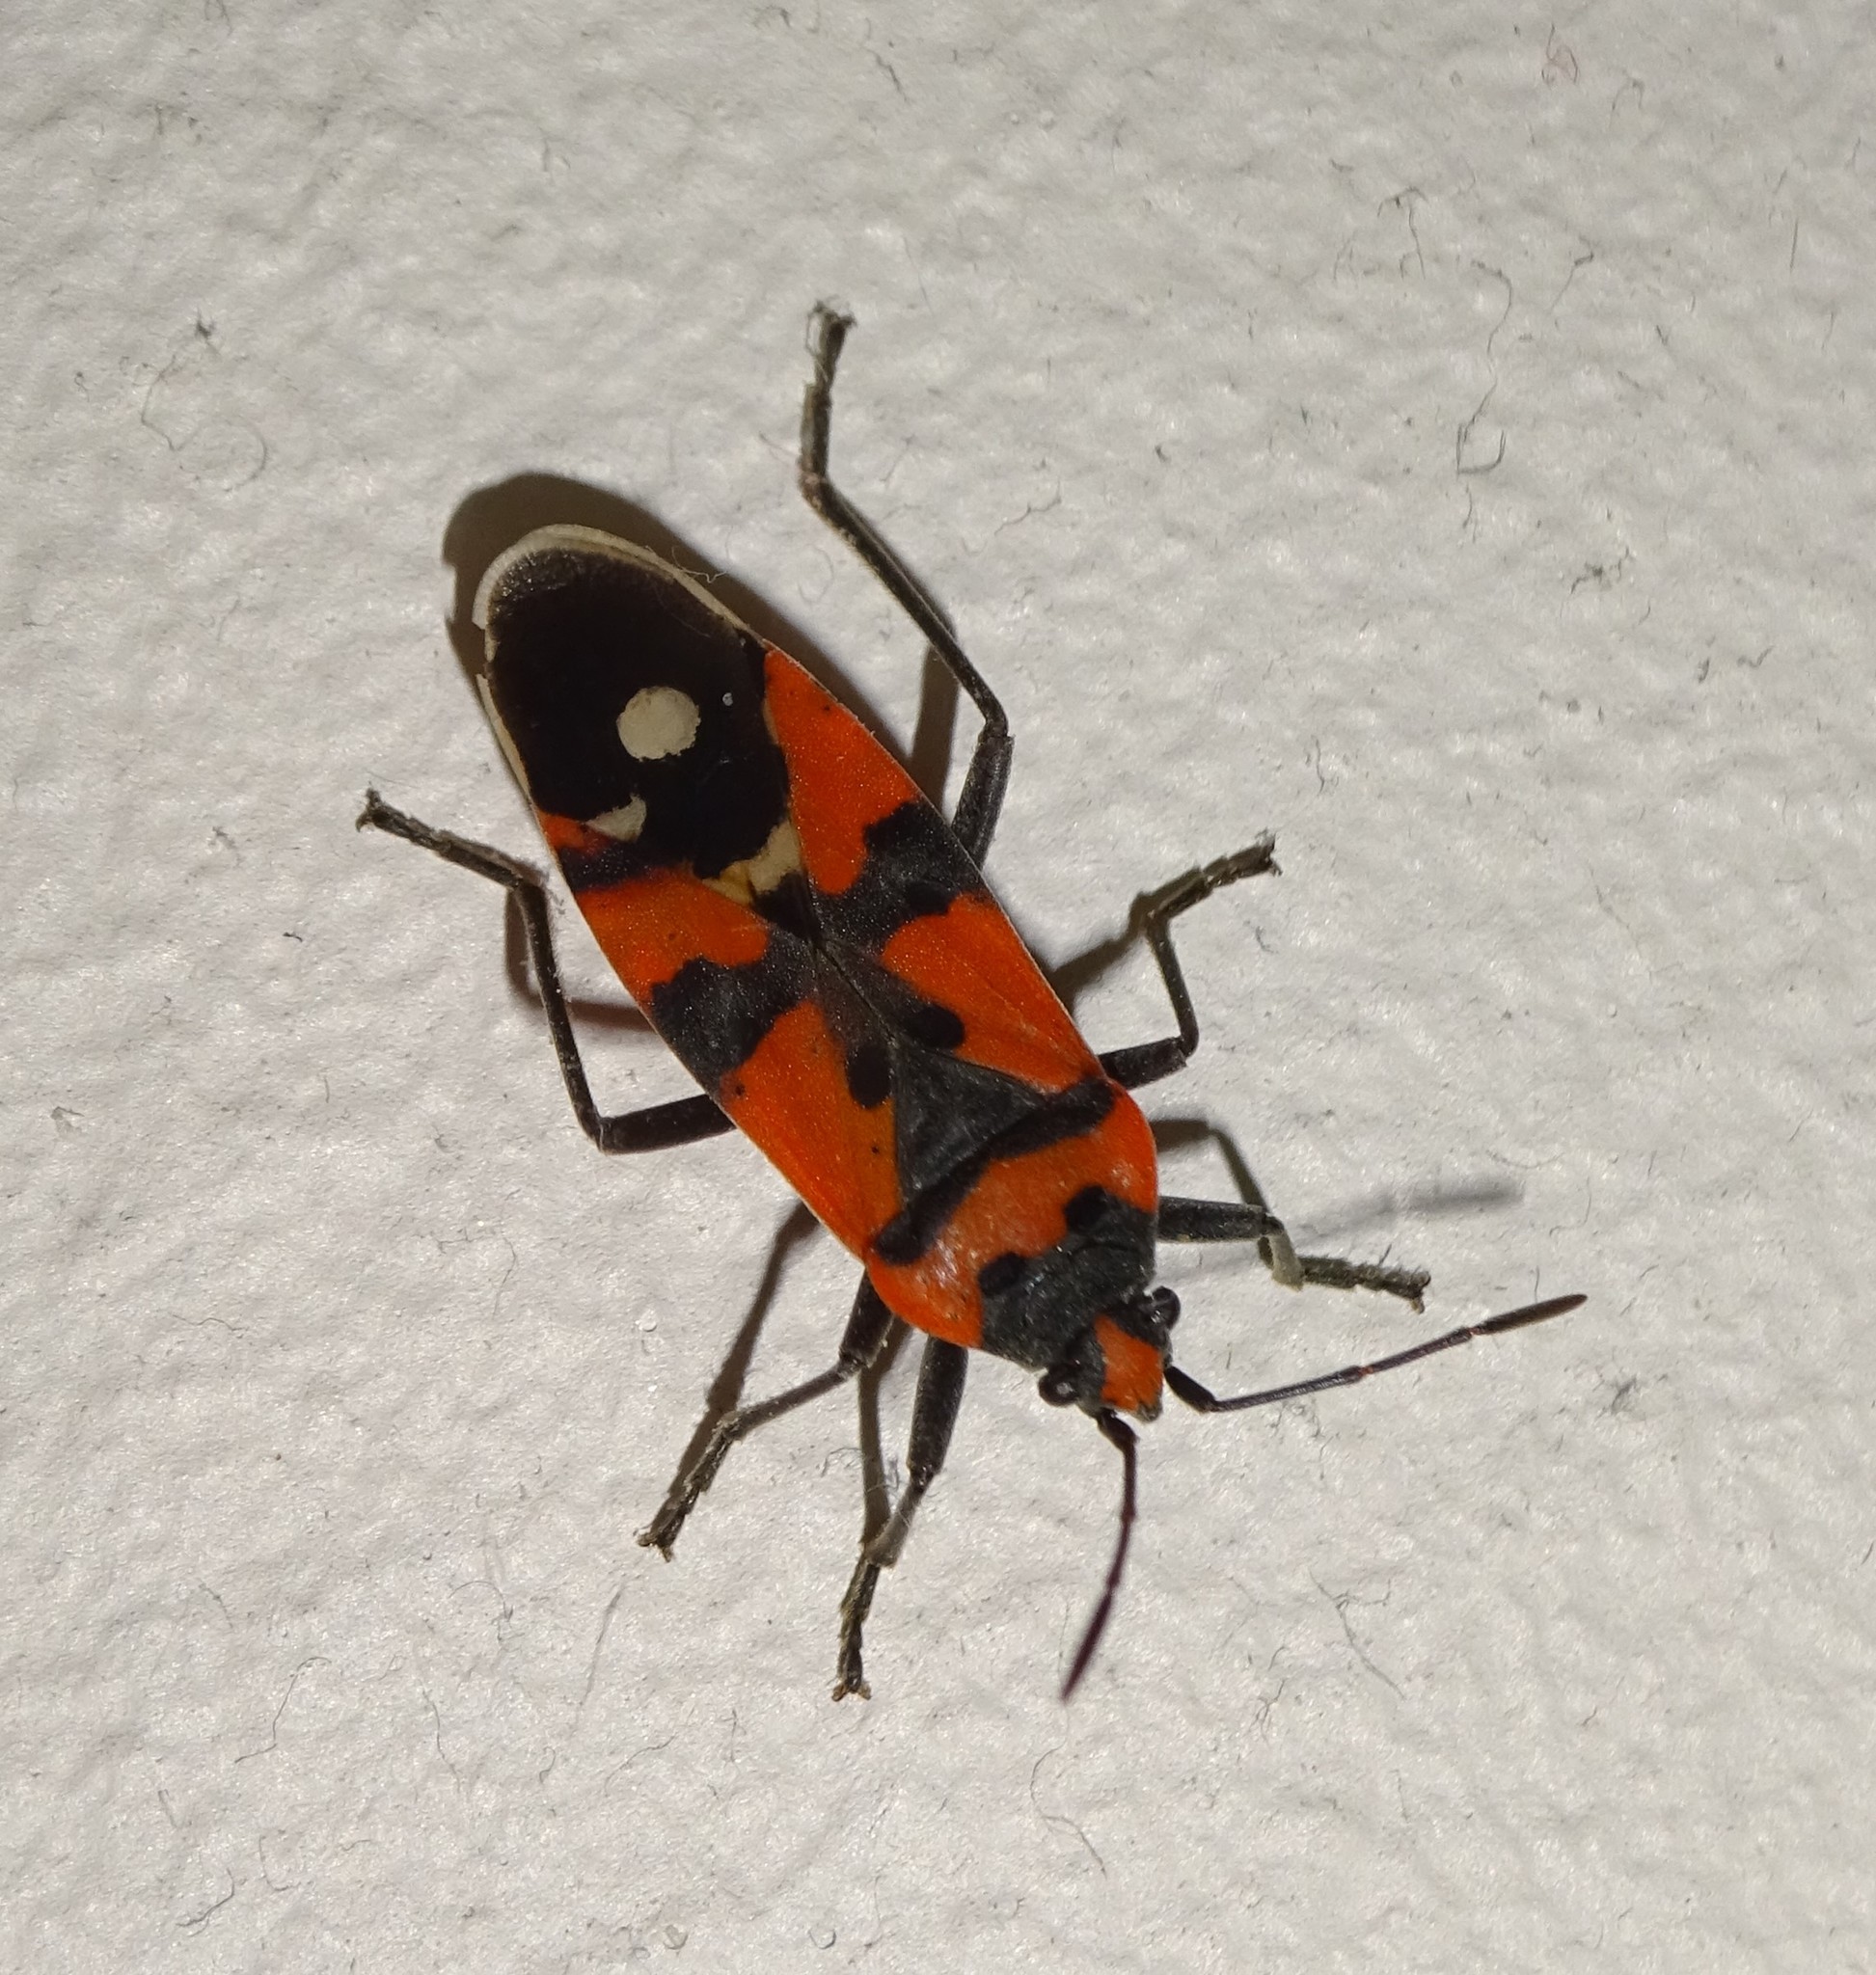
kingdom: Animalia
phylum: Arthropoda
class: Insecta
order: Hemiptera
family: Lygaeidae
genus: Lygaeus
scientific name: Lygaeus equestris
